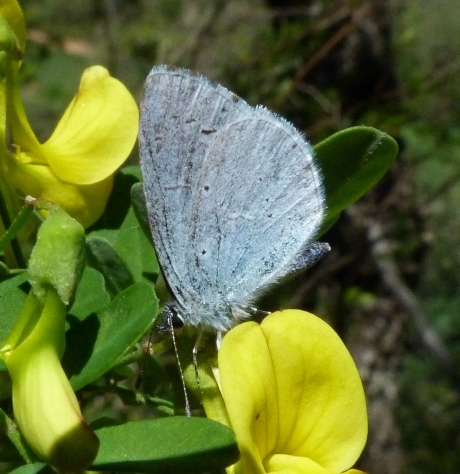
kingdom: Animalia
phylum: Arthropoda
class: Insecta
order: Lepidoptera
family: Lycaenidae
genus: Celastrina
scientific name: Celastrina argiolus
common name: Holly blue
